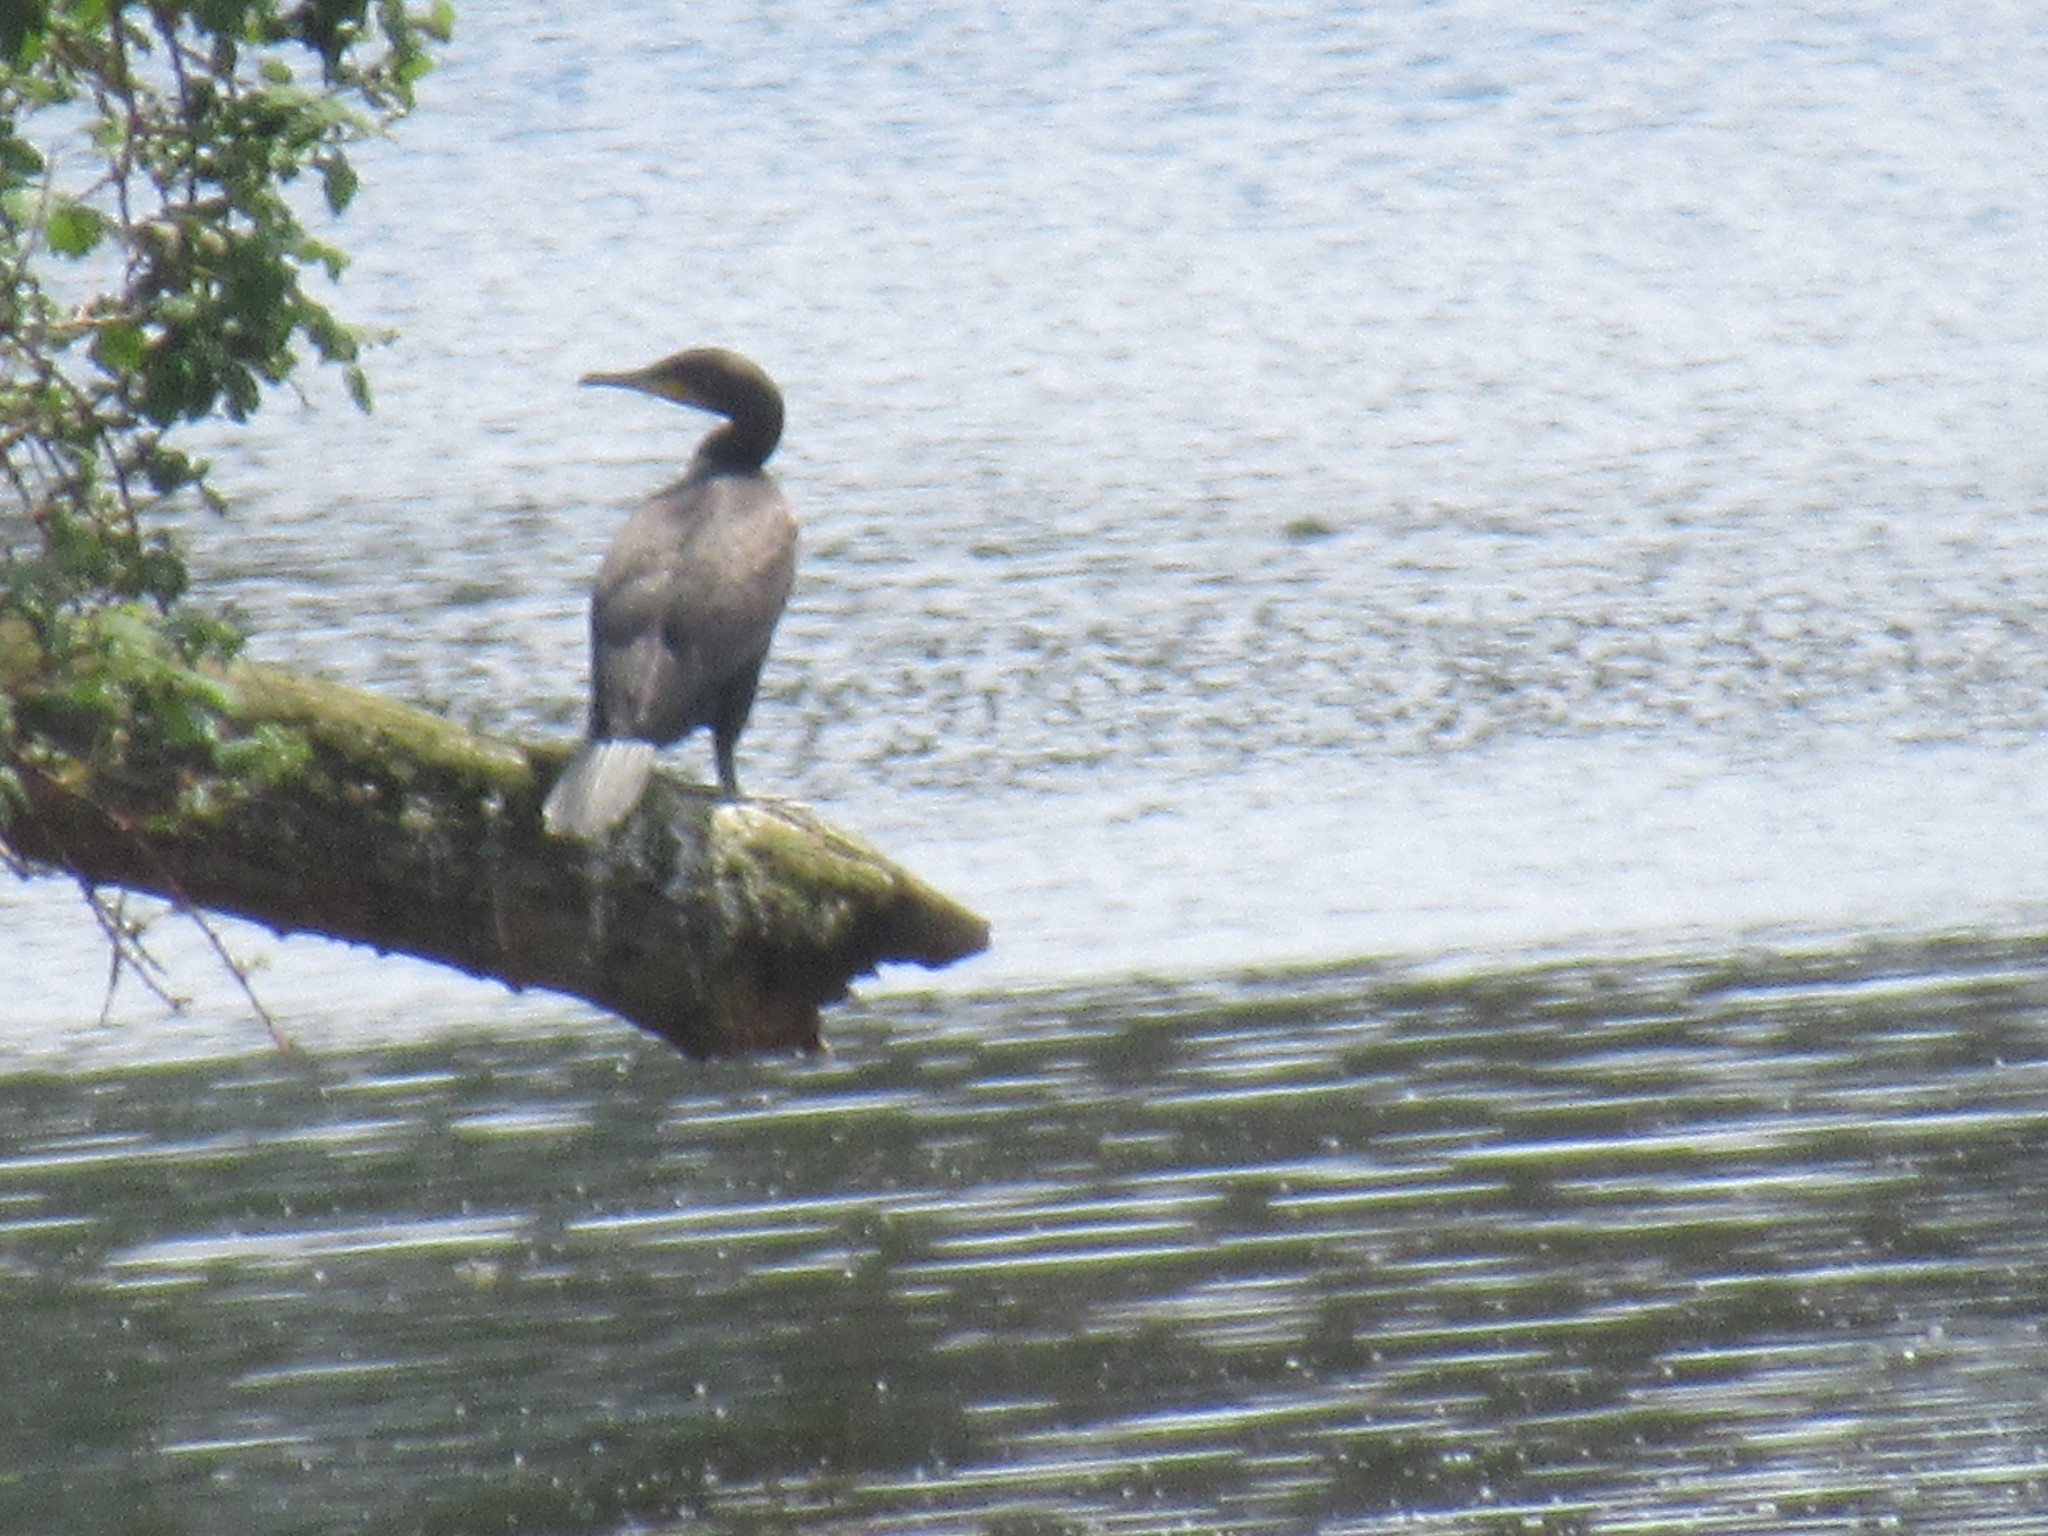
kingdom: Animalia
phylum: Chordata
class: Aves
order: Suliformes
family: Phalacrocoracidae
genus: Phalacrocorax
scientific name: Phalacrocorax carbo
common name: Great cormorant
